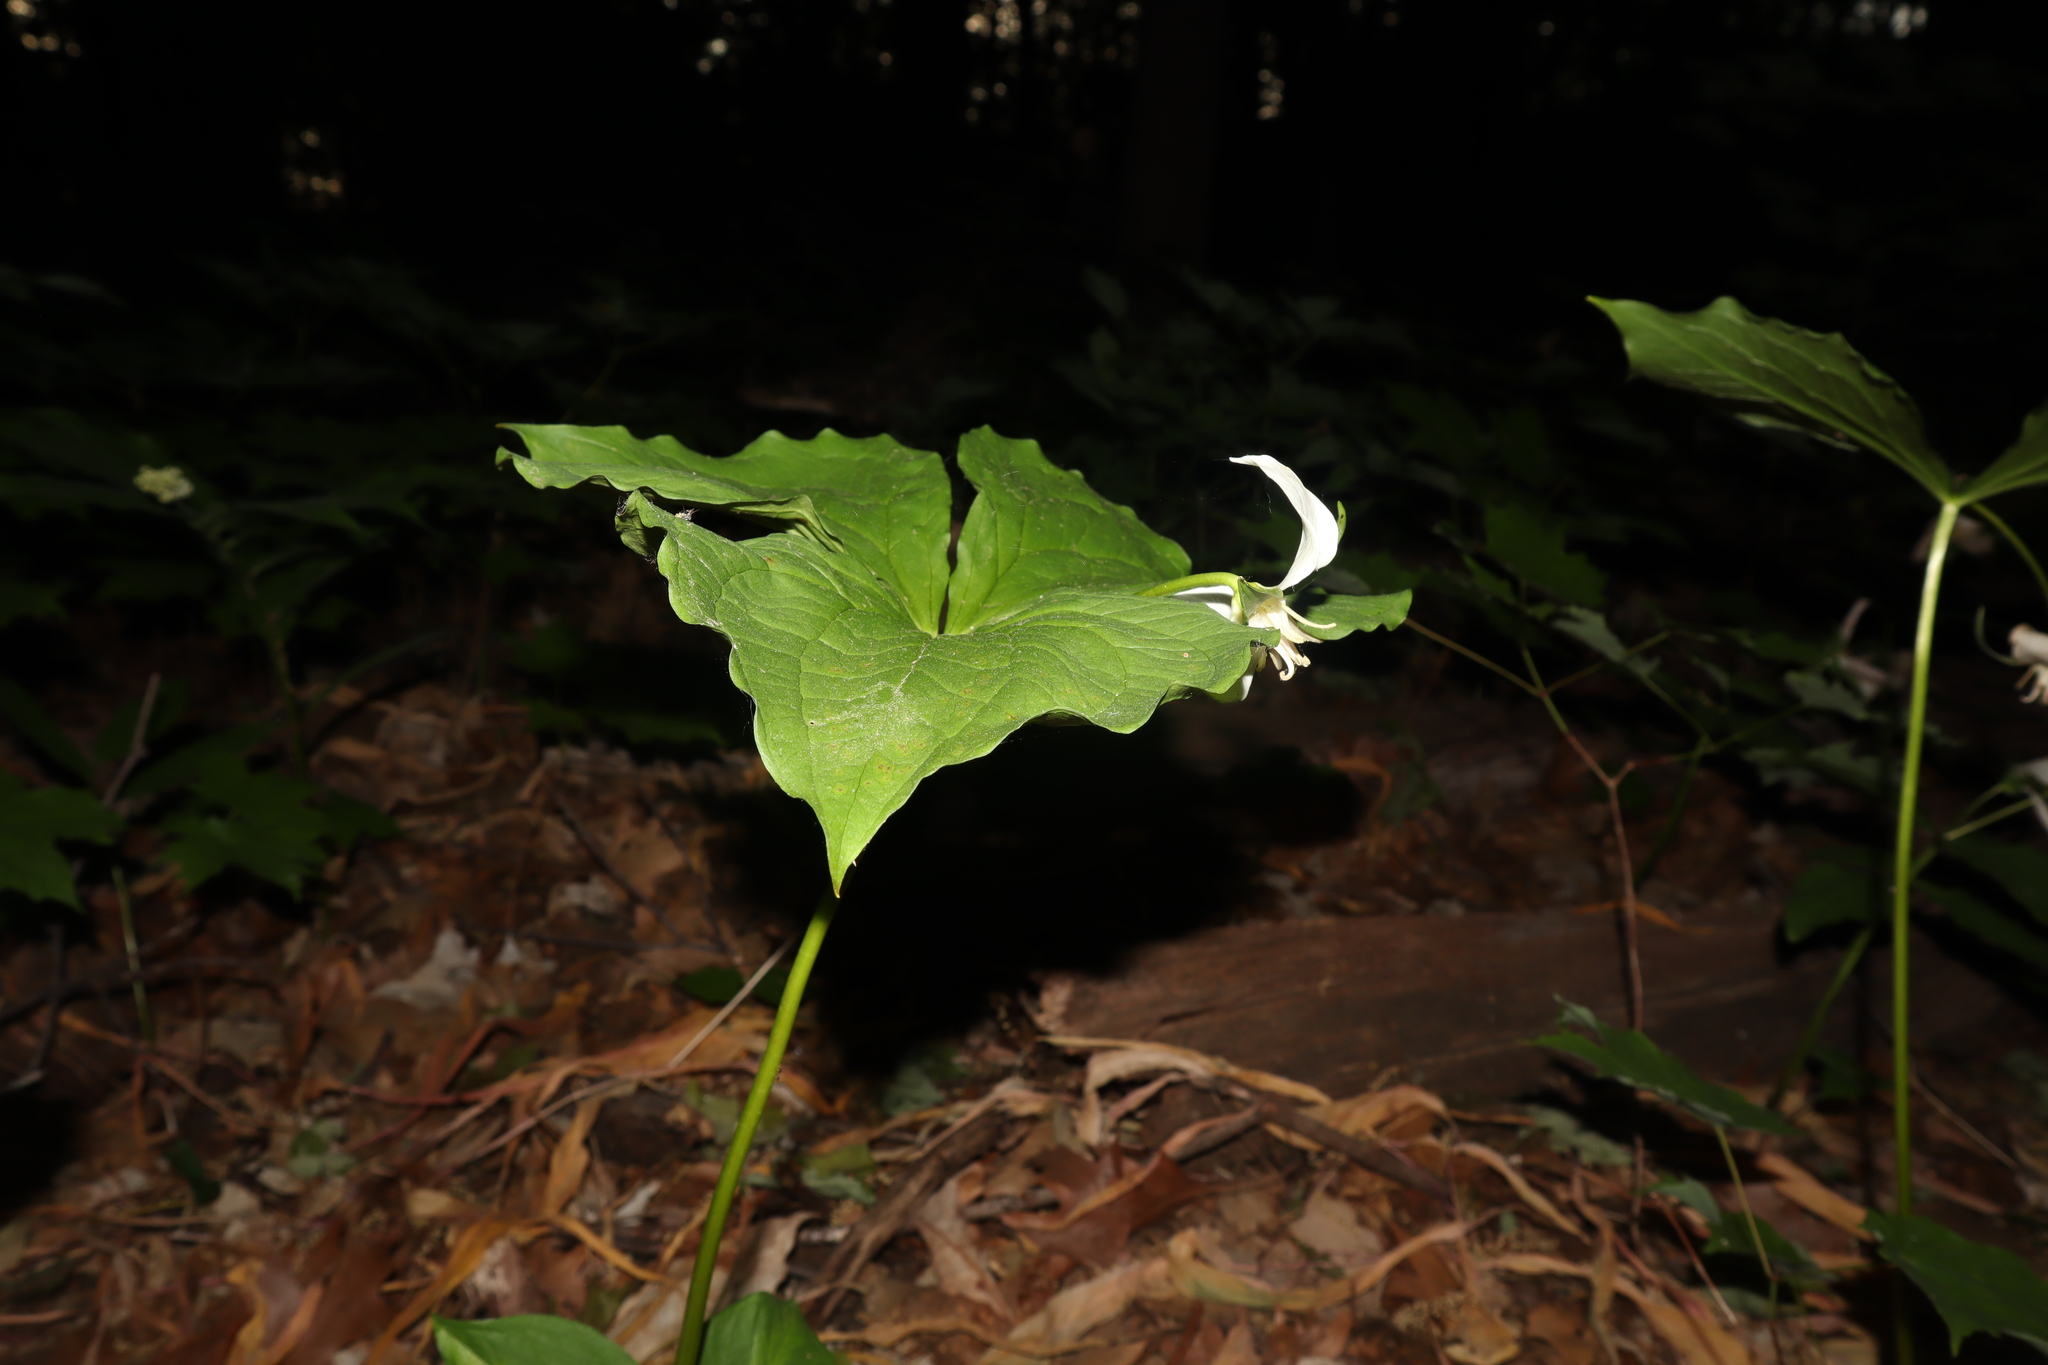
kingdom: Plantae
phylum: Tracheophyta
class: Liliopsida
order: Liliales
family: Melanthiaceae
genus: Trillium
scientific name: Trillium flexipes
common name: Drooping trillium
